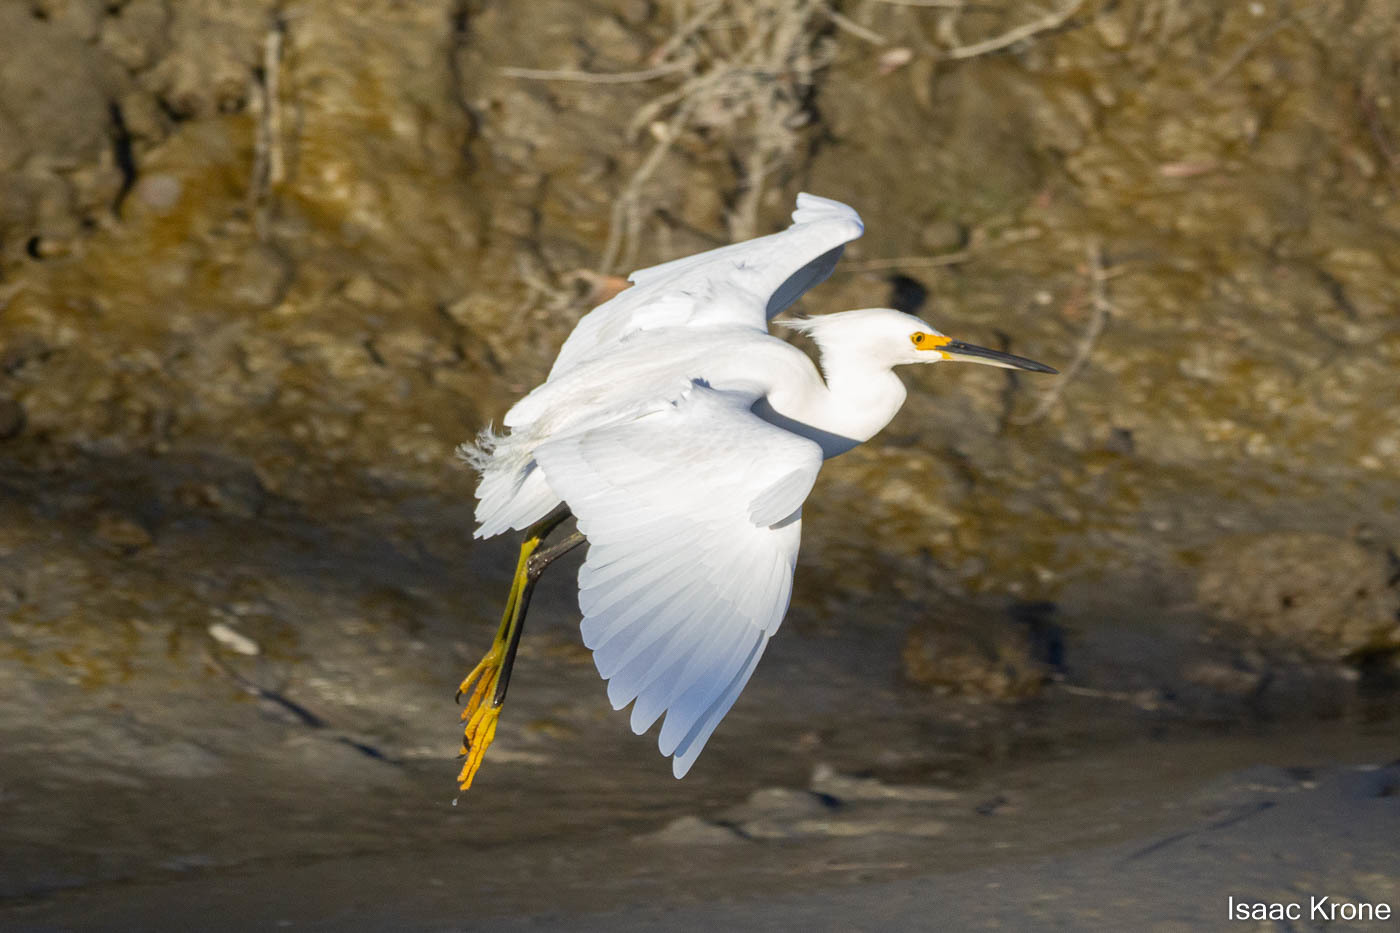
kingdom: Animalia
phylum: Chordata
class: Aves
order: Pelecaniformes
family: Ardeidae
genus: Egretta
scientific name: Egretta thula
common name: Snowy egret
